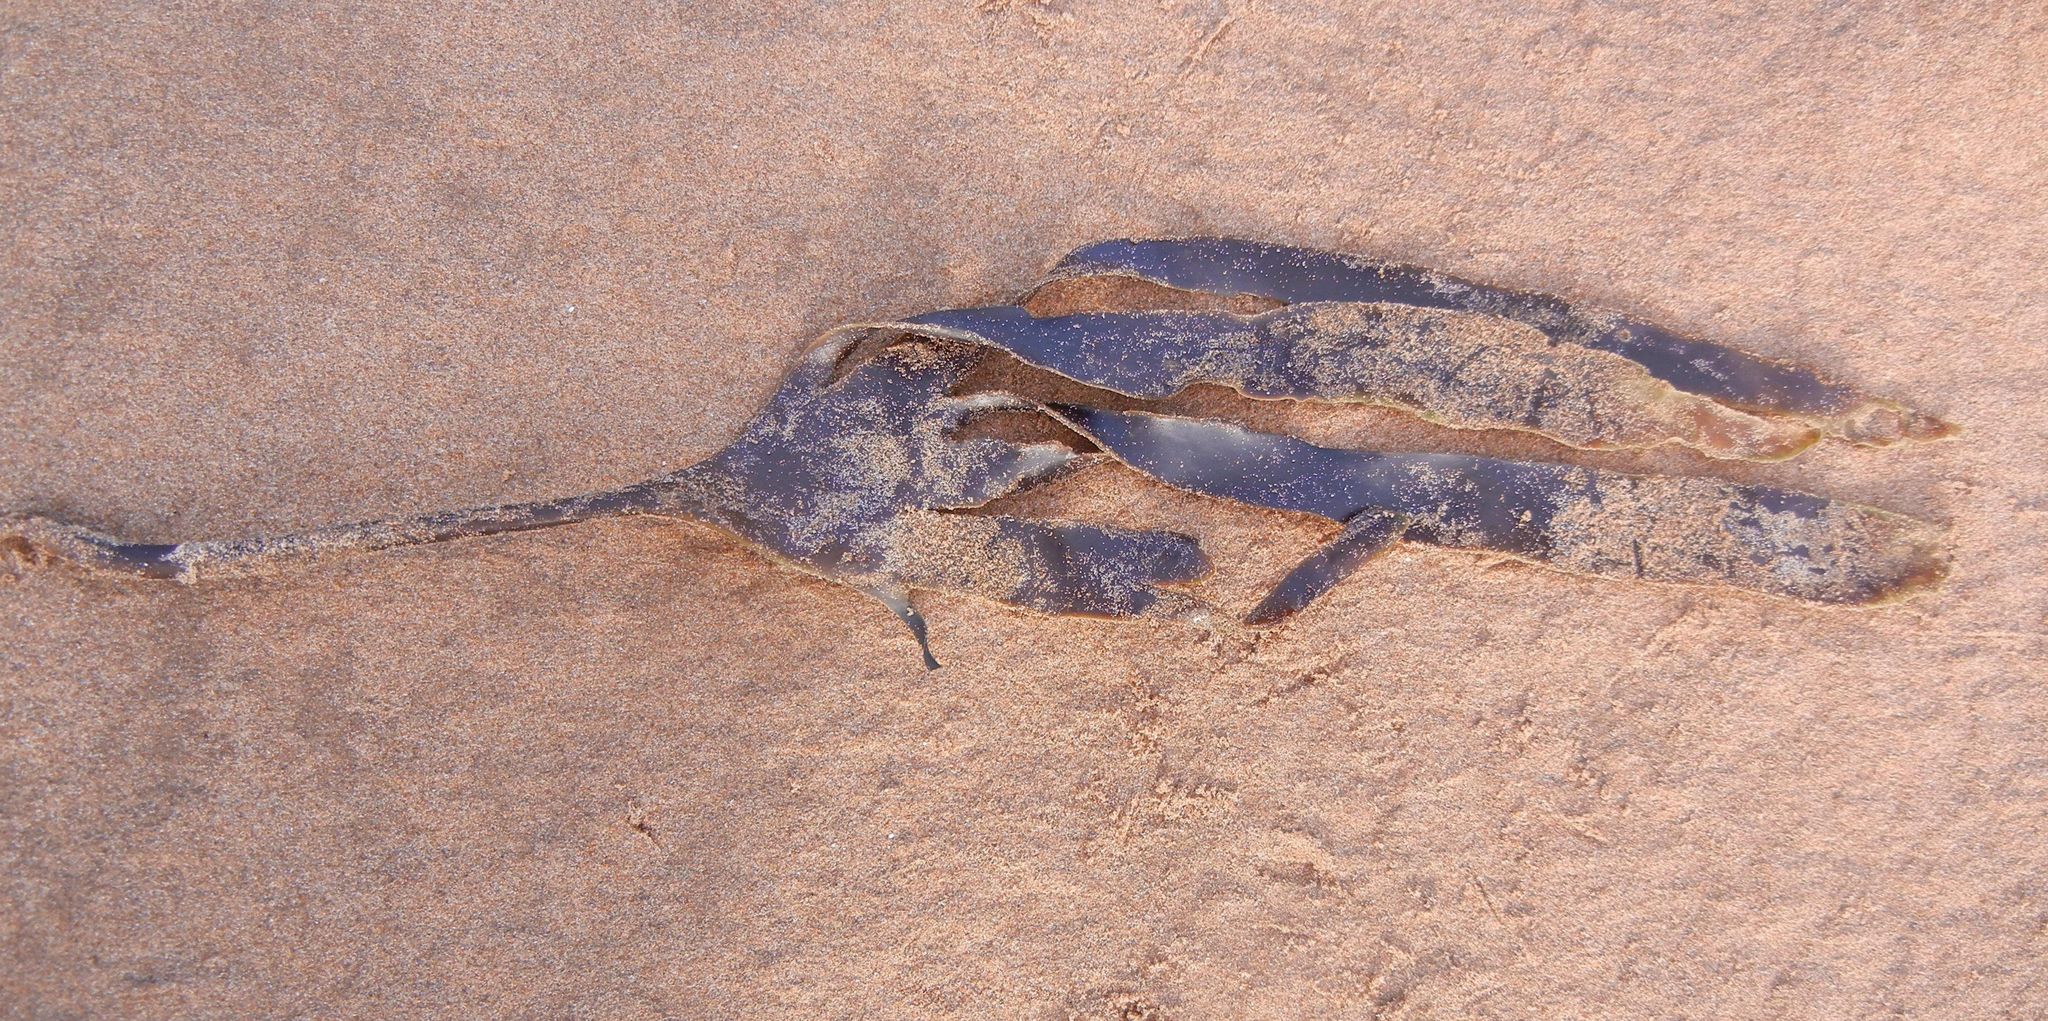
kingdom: Chromista
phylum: Ochrophyta
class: Phaeophyceae
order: Laminariales
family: Laminariaceae
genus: Laminaria
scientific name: Laminaria digitata
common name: Oarweed
